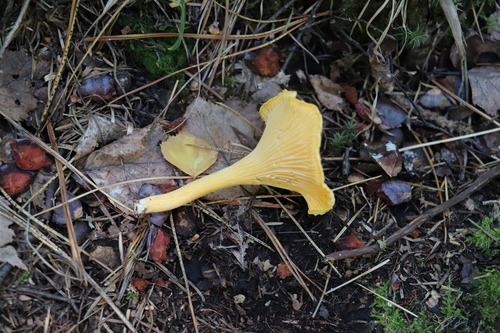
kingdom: Fungi
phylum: Basidiomycota
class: Agaricomycetes
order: Cantharellales
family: Hydnaceae
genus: Cantharellus
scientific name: Cantharellus cibarius
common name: Chanterelle
